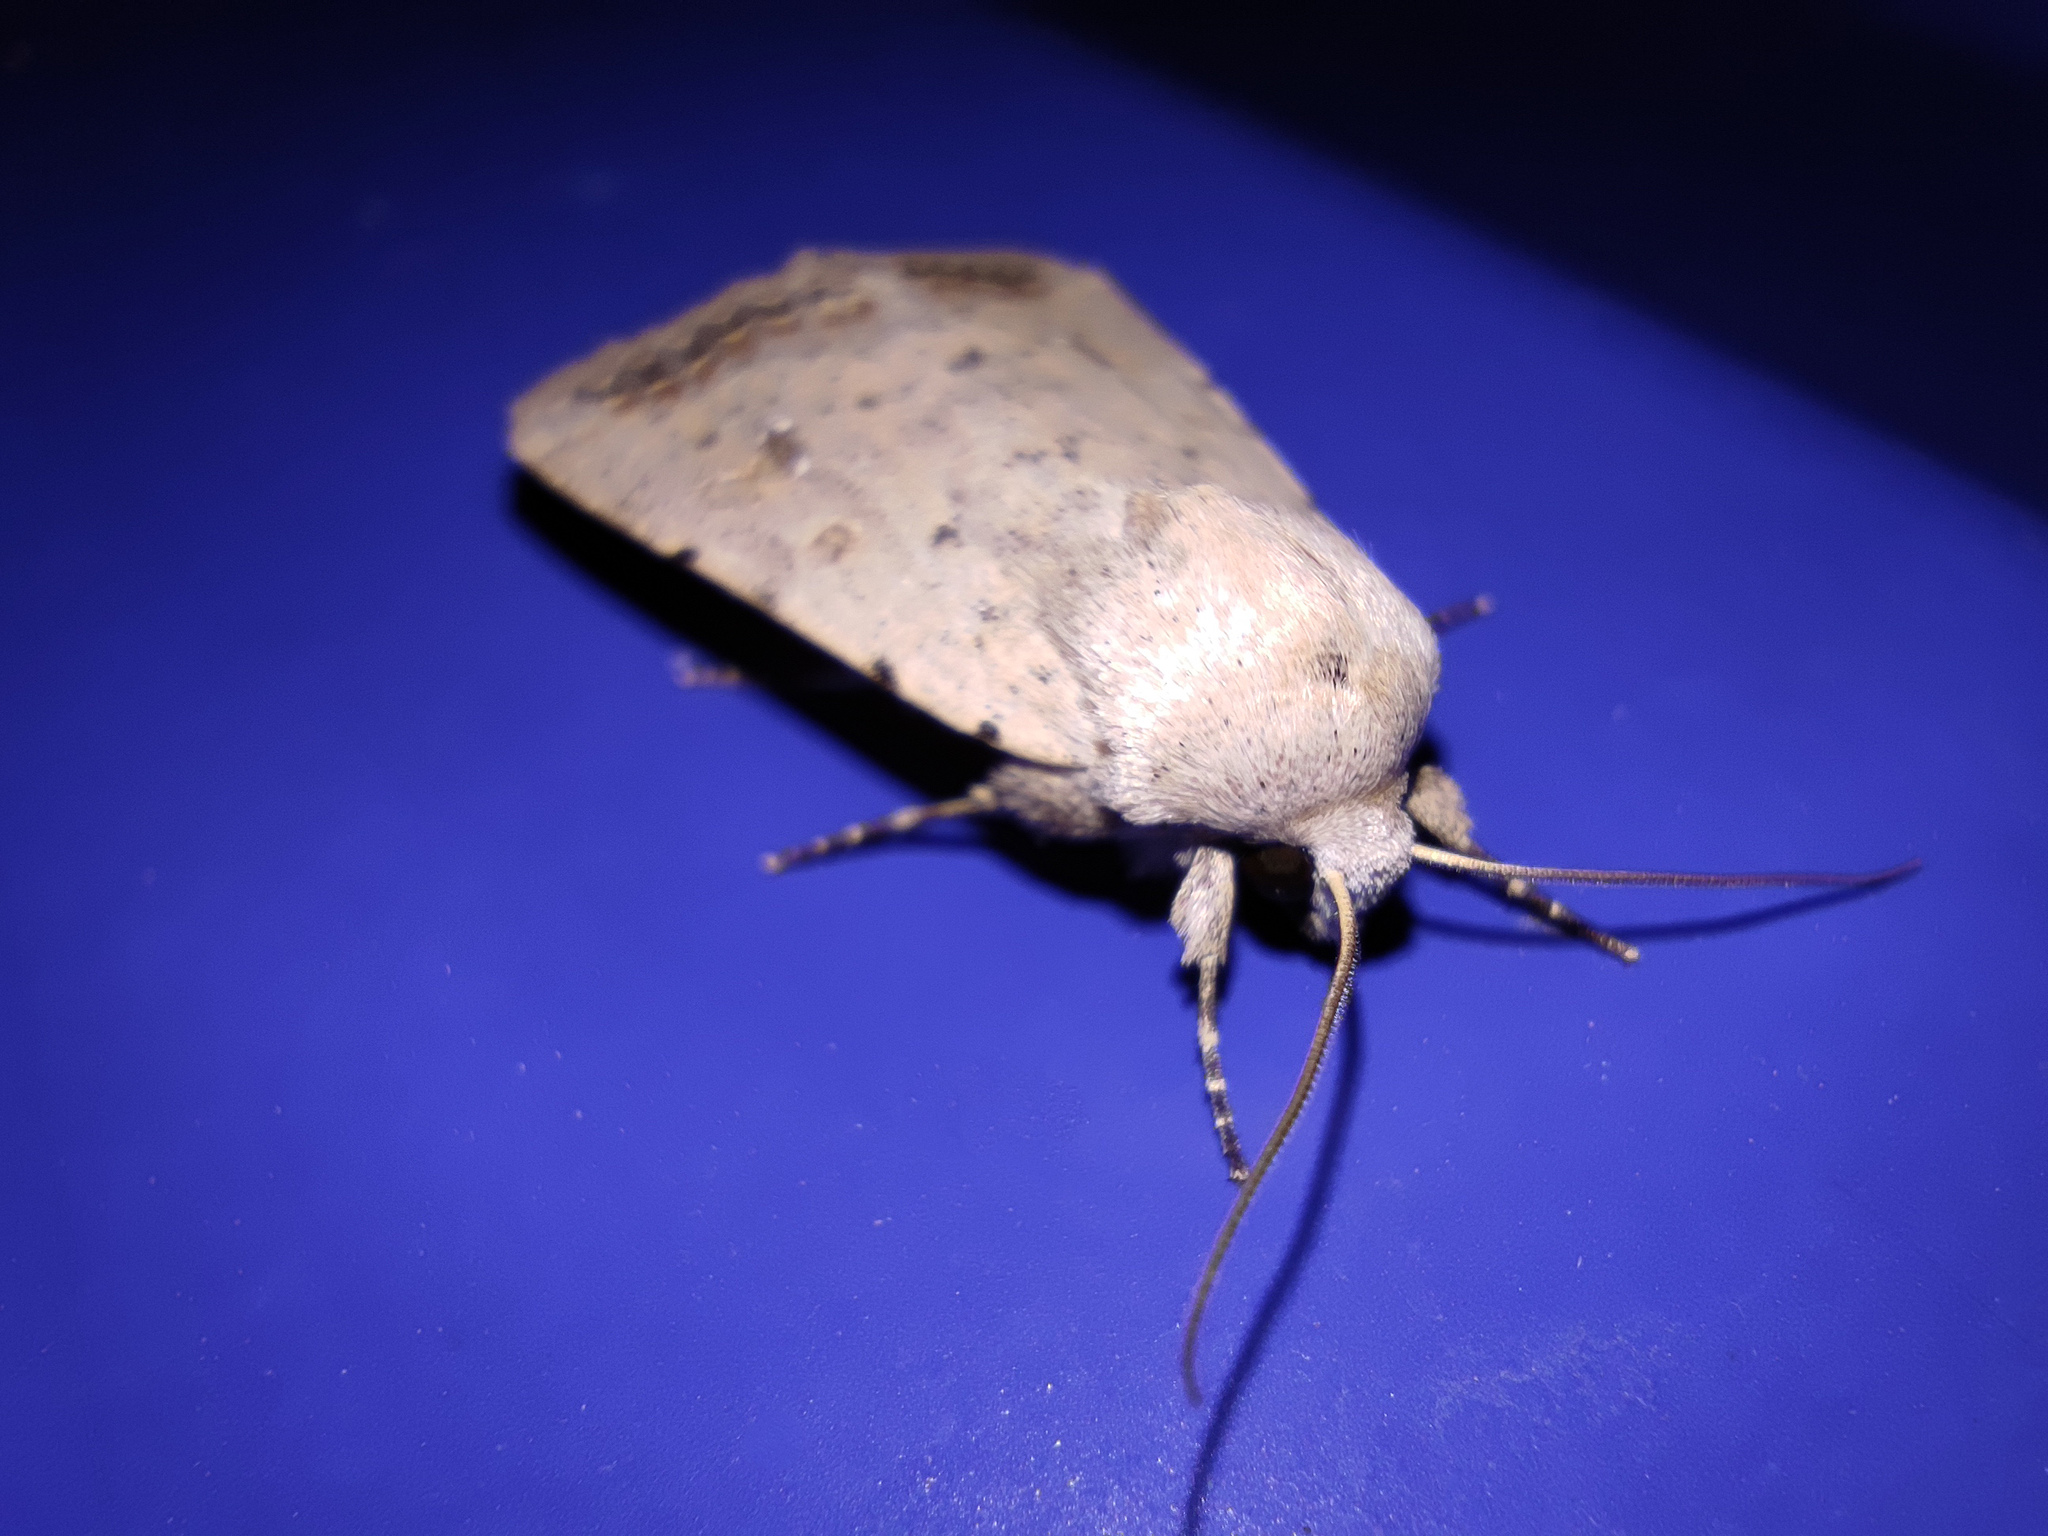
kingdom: Animalia
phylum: Arthropoda
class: Insecta
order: Lepidoptera
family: Noctuidae
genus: Caradrina
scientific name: Caradrina albina
